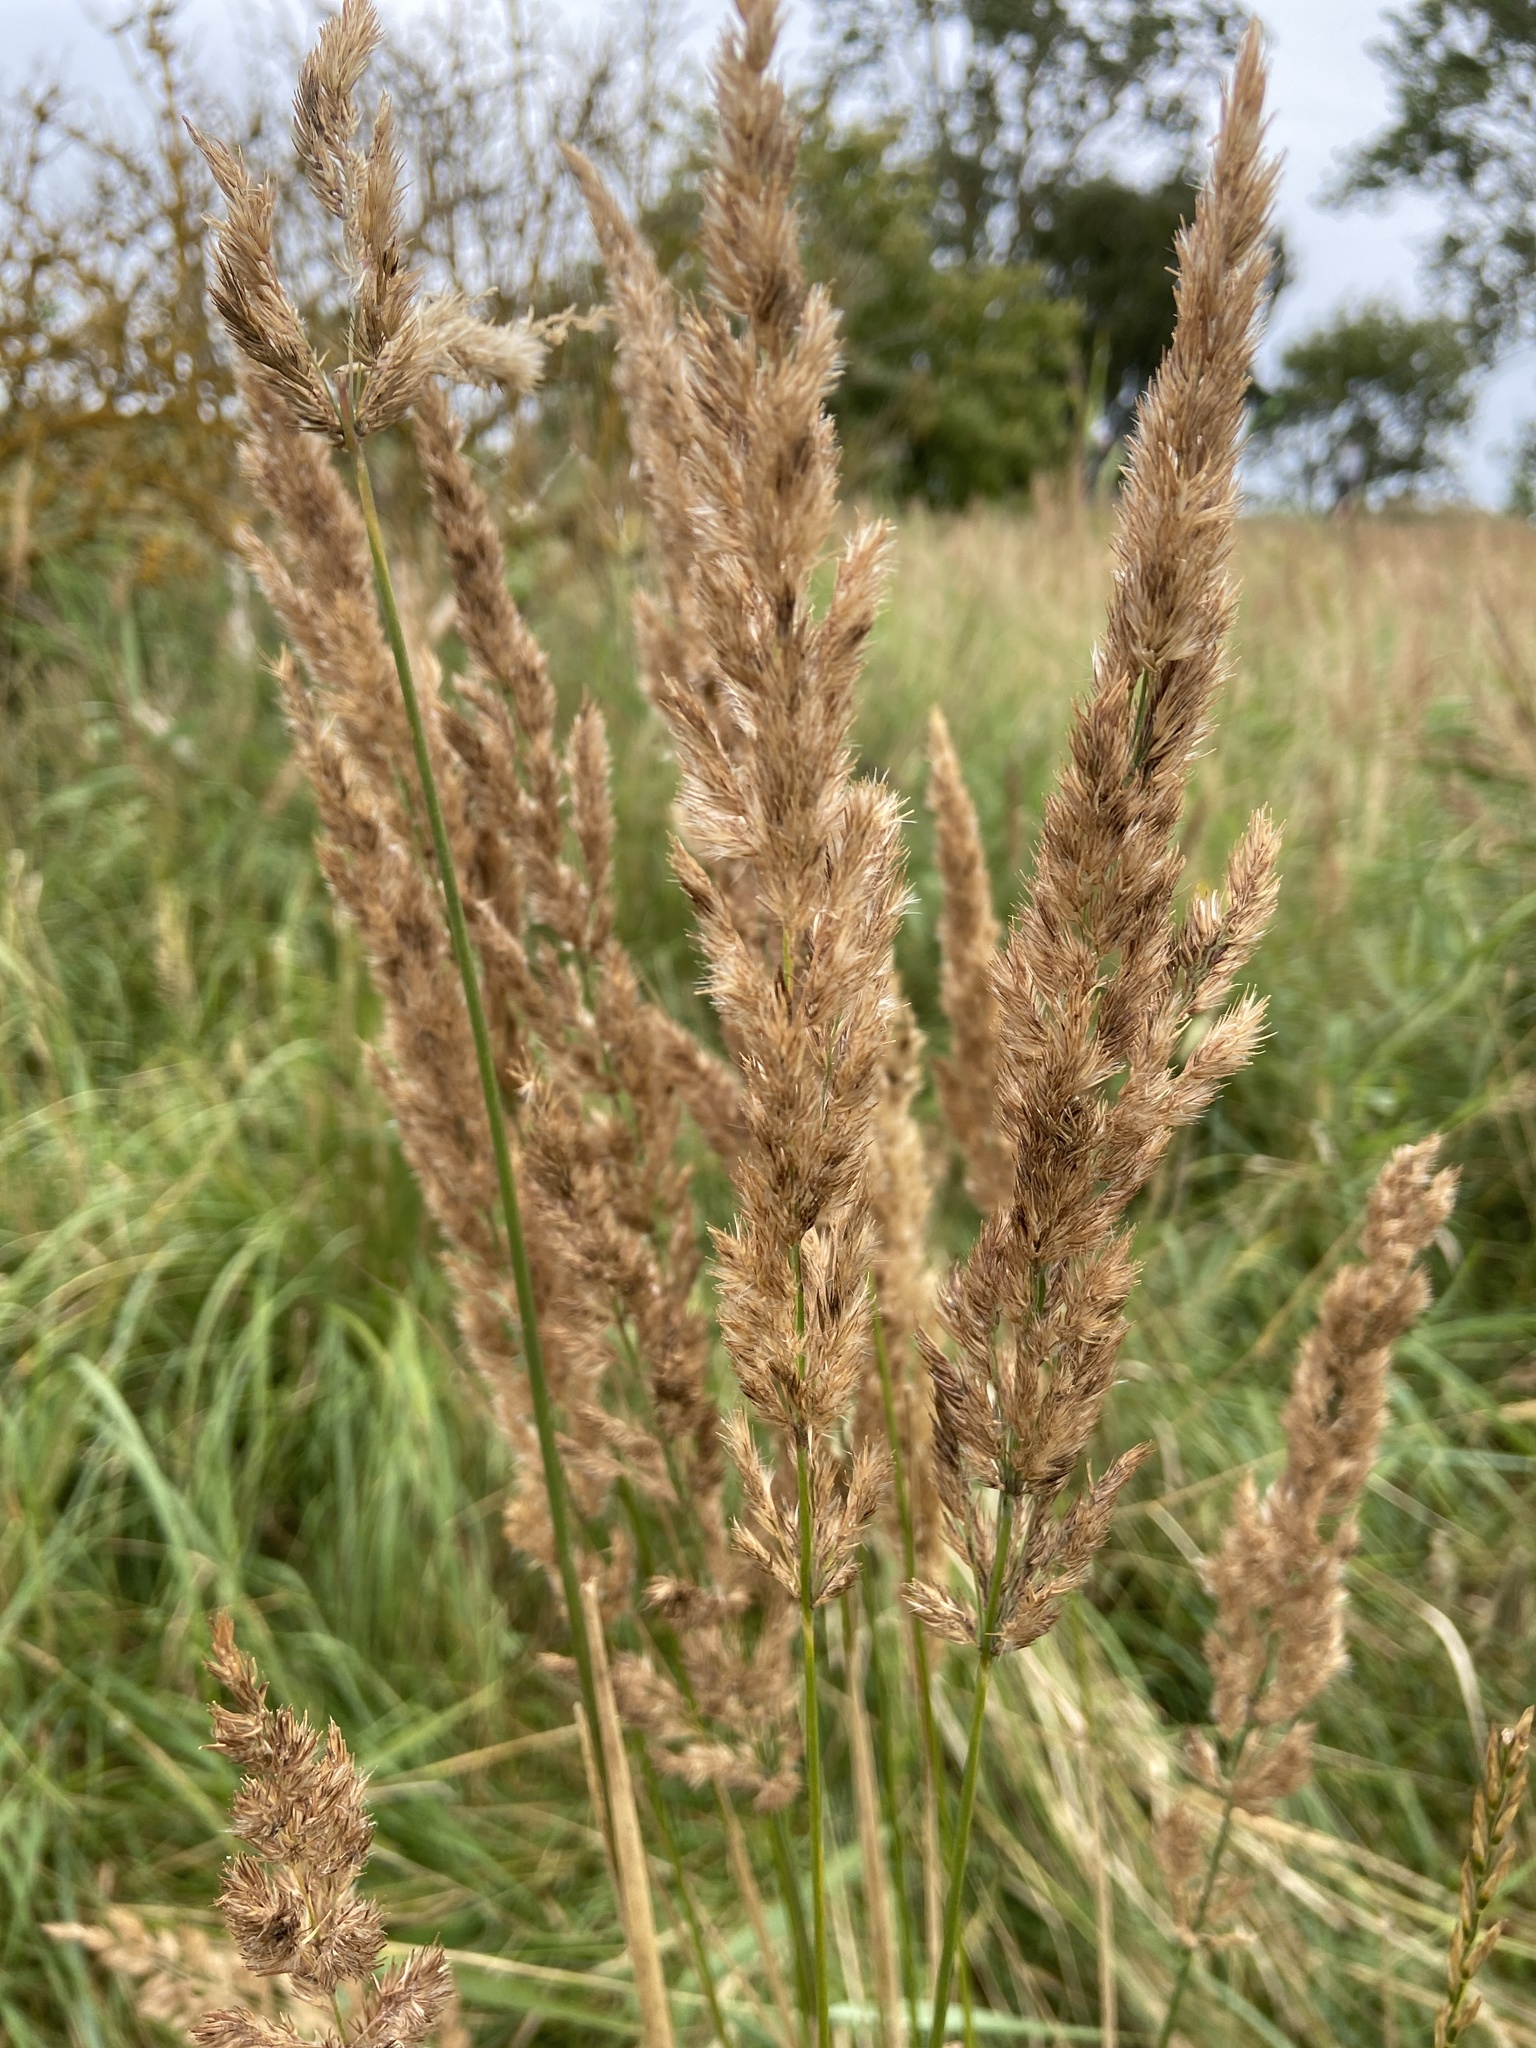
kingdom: Plantae
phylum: Tracheophyta
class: Liliopsida
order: Poales
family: Poaceae
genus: Calamagrostis
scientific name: Calamagrostis epigejos
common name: Wood small-reed
